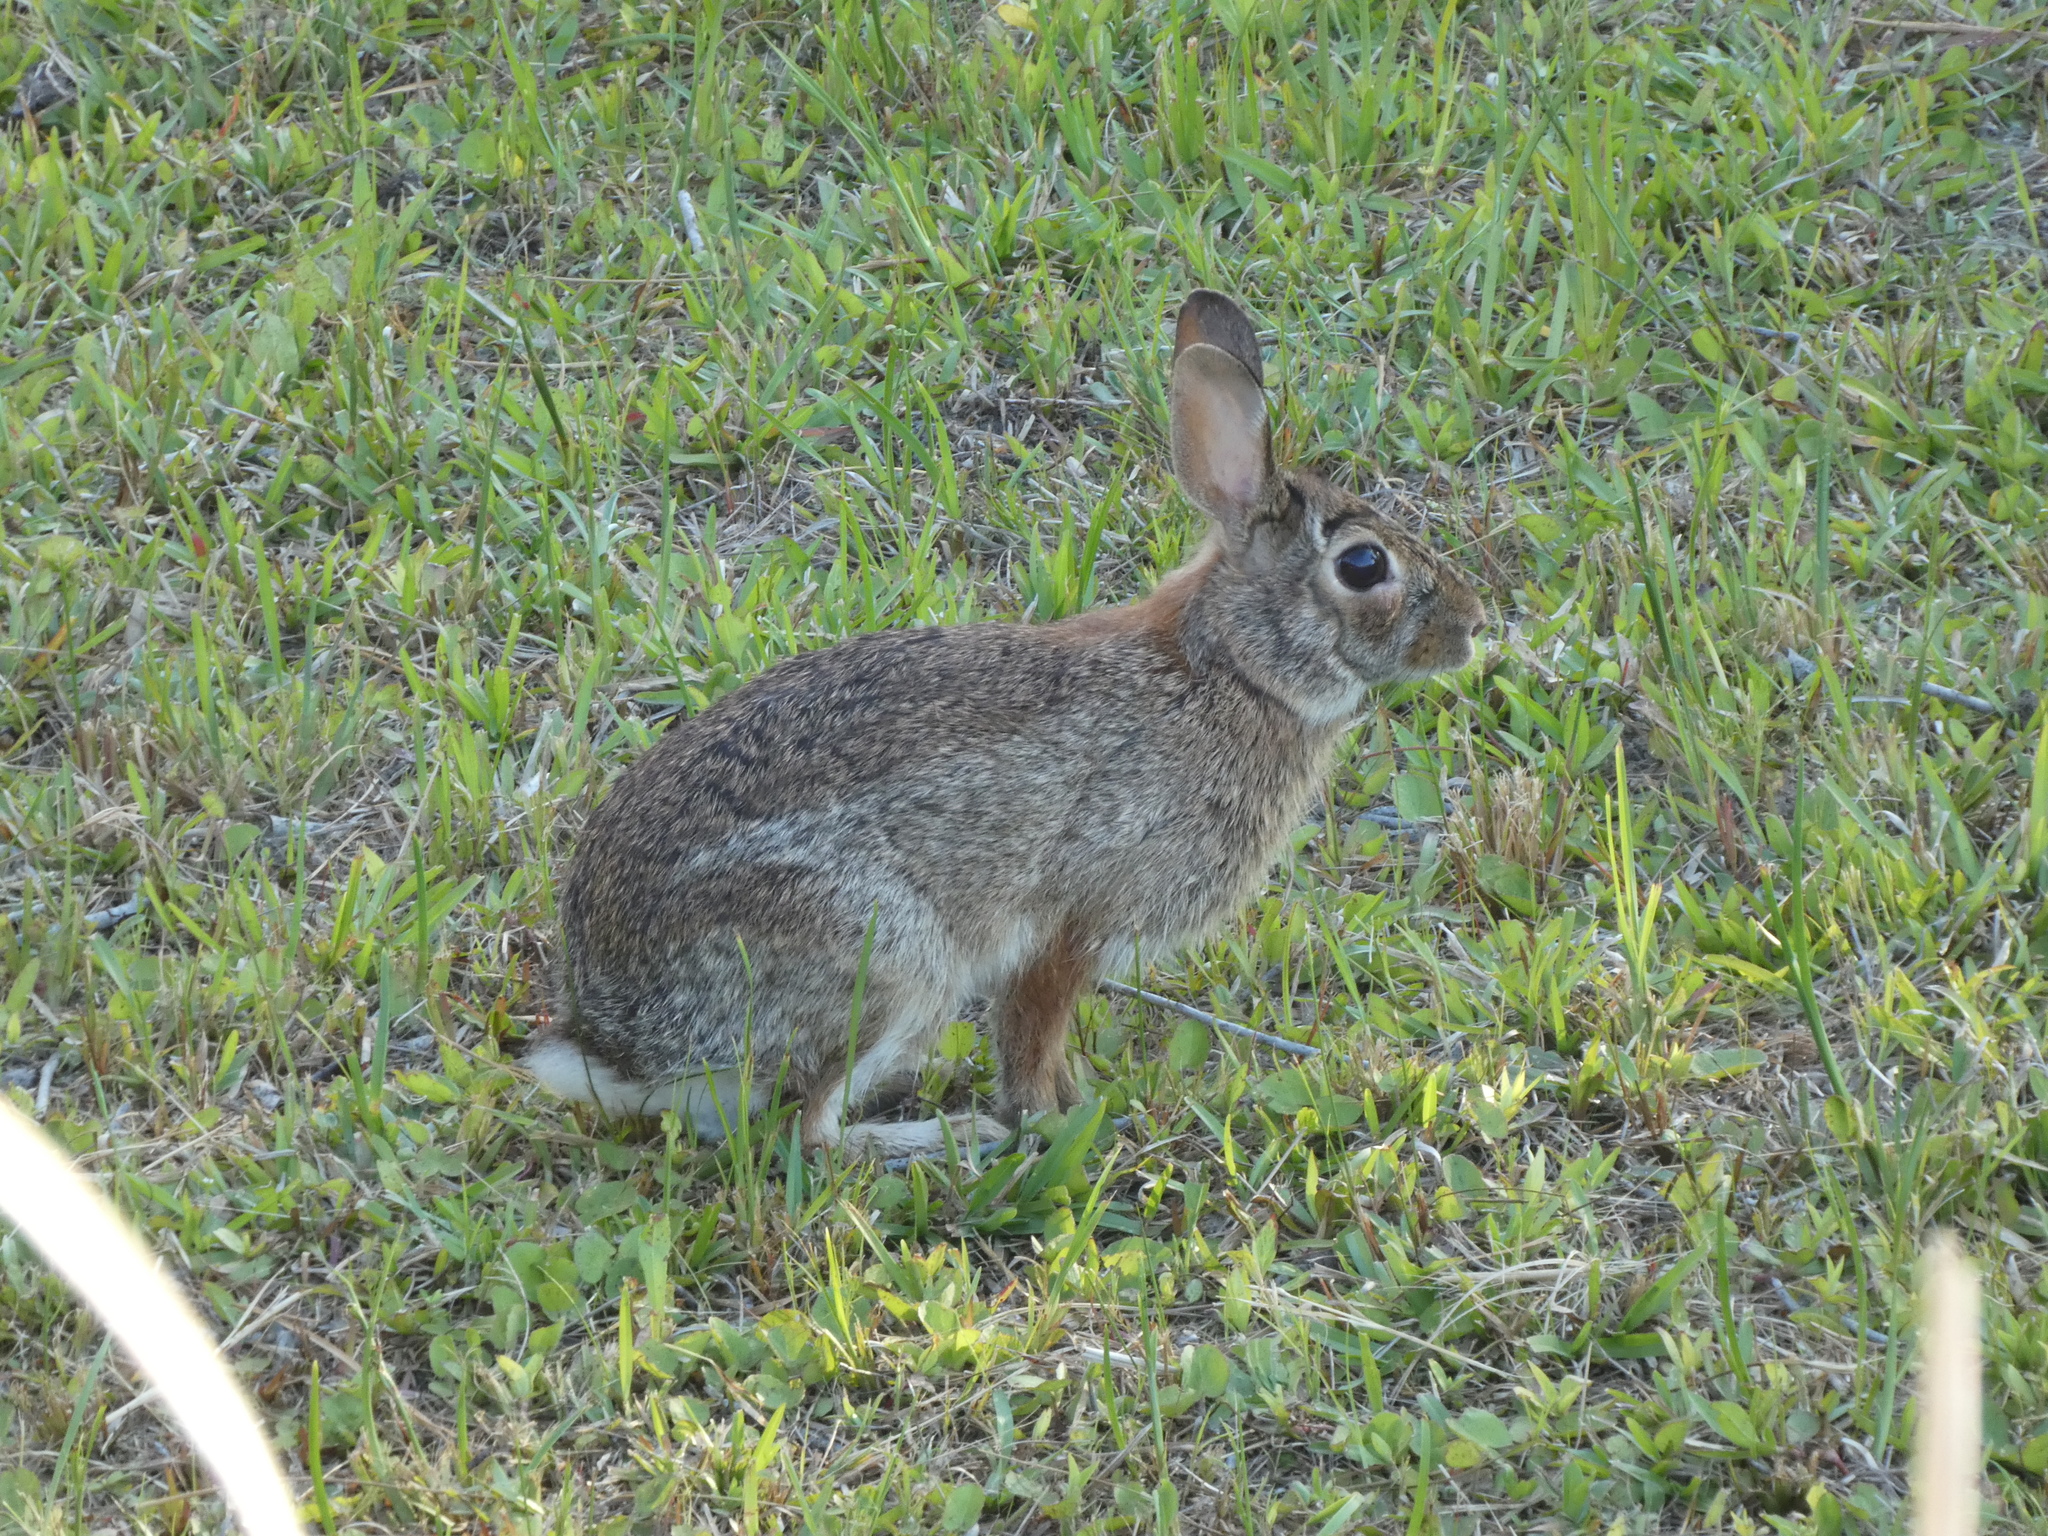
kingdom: Animalia
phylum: Chordata
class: Mammalia
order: Lagomorpha
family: Leporidae
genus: Sylvilagus
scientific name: Sylvilagus floridanus
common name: Eastern cottontail
